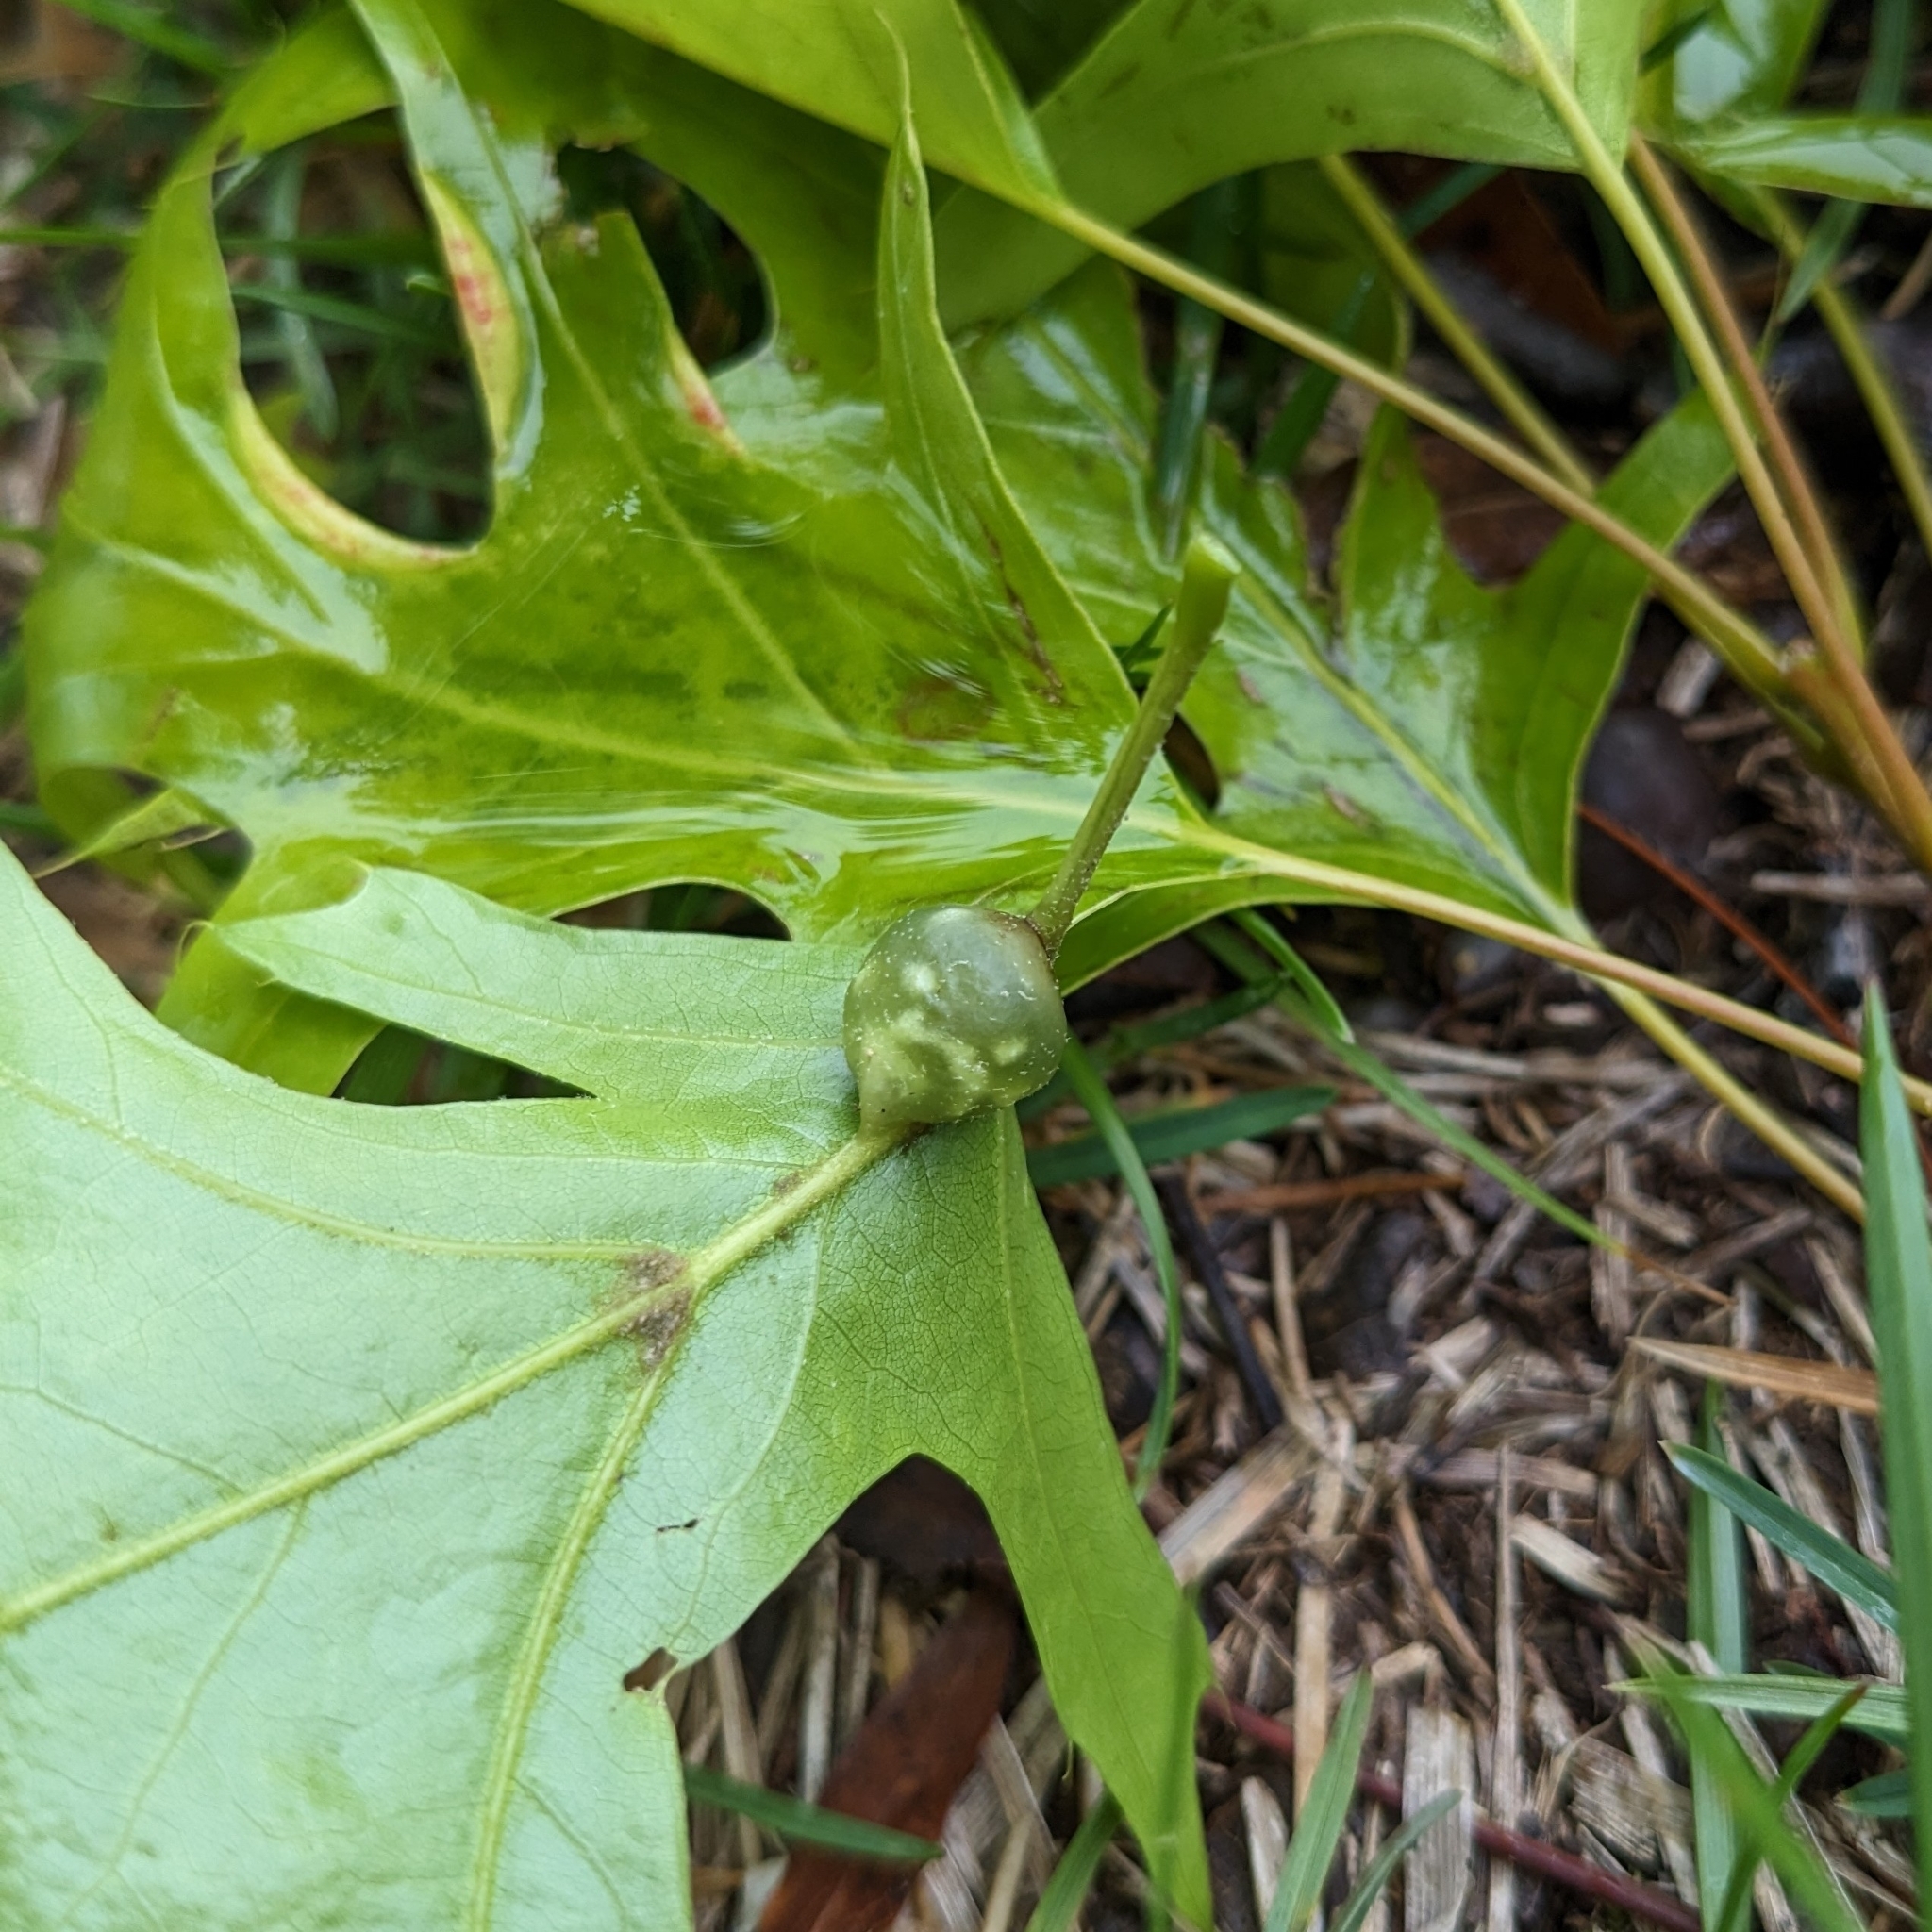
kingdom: Animalia
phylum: Arthropoda
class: Insecta
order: Hymenoptera
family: Cynipidae
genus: Dryocosmus
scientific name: Dryocosmus quercuspalustris
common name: Succulent oak gall wasp
